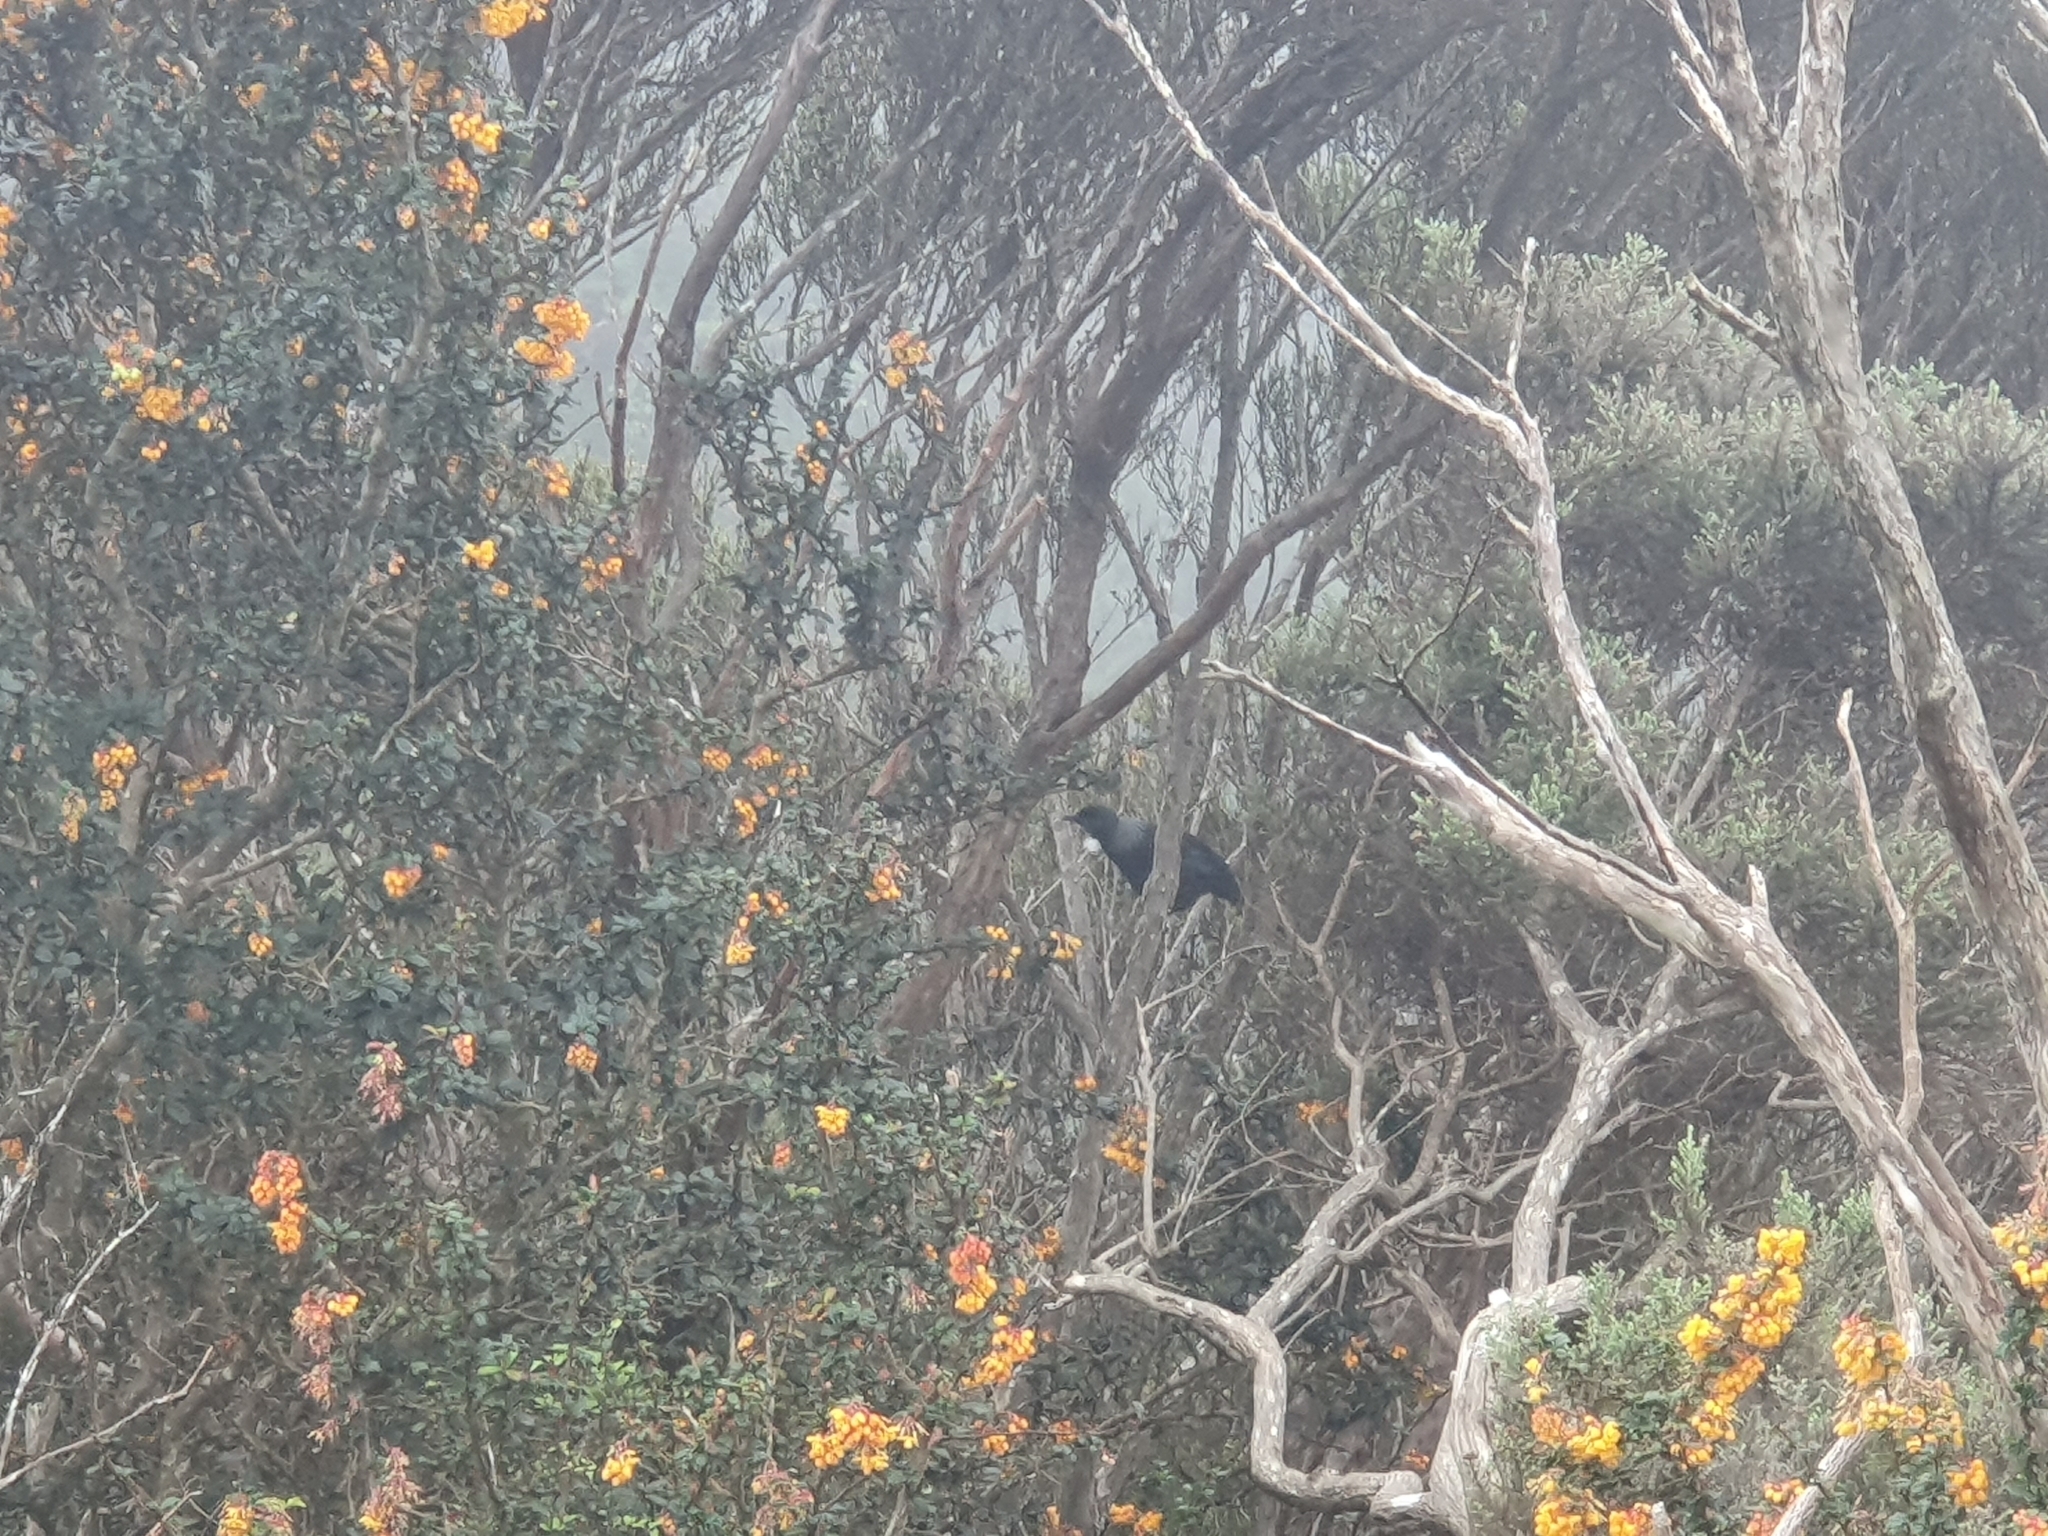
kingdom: Animalia
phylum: Chordata
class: Aves
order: Passeriformes
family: Meliphagidae
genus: Prosthemadera
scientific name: Prosthemadera novaeseelandiae
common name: Tui
